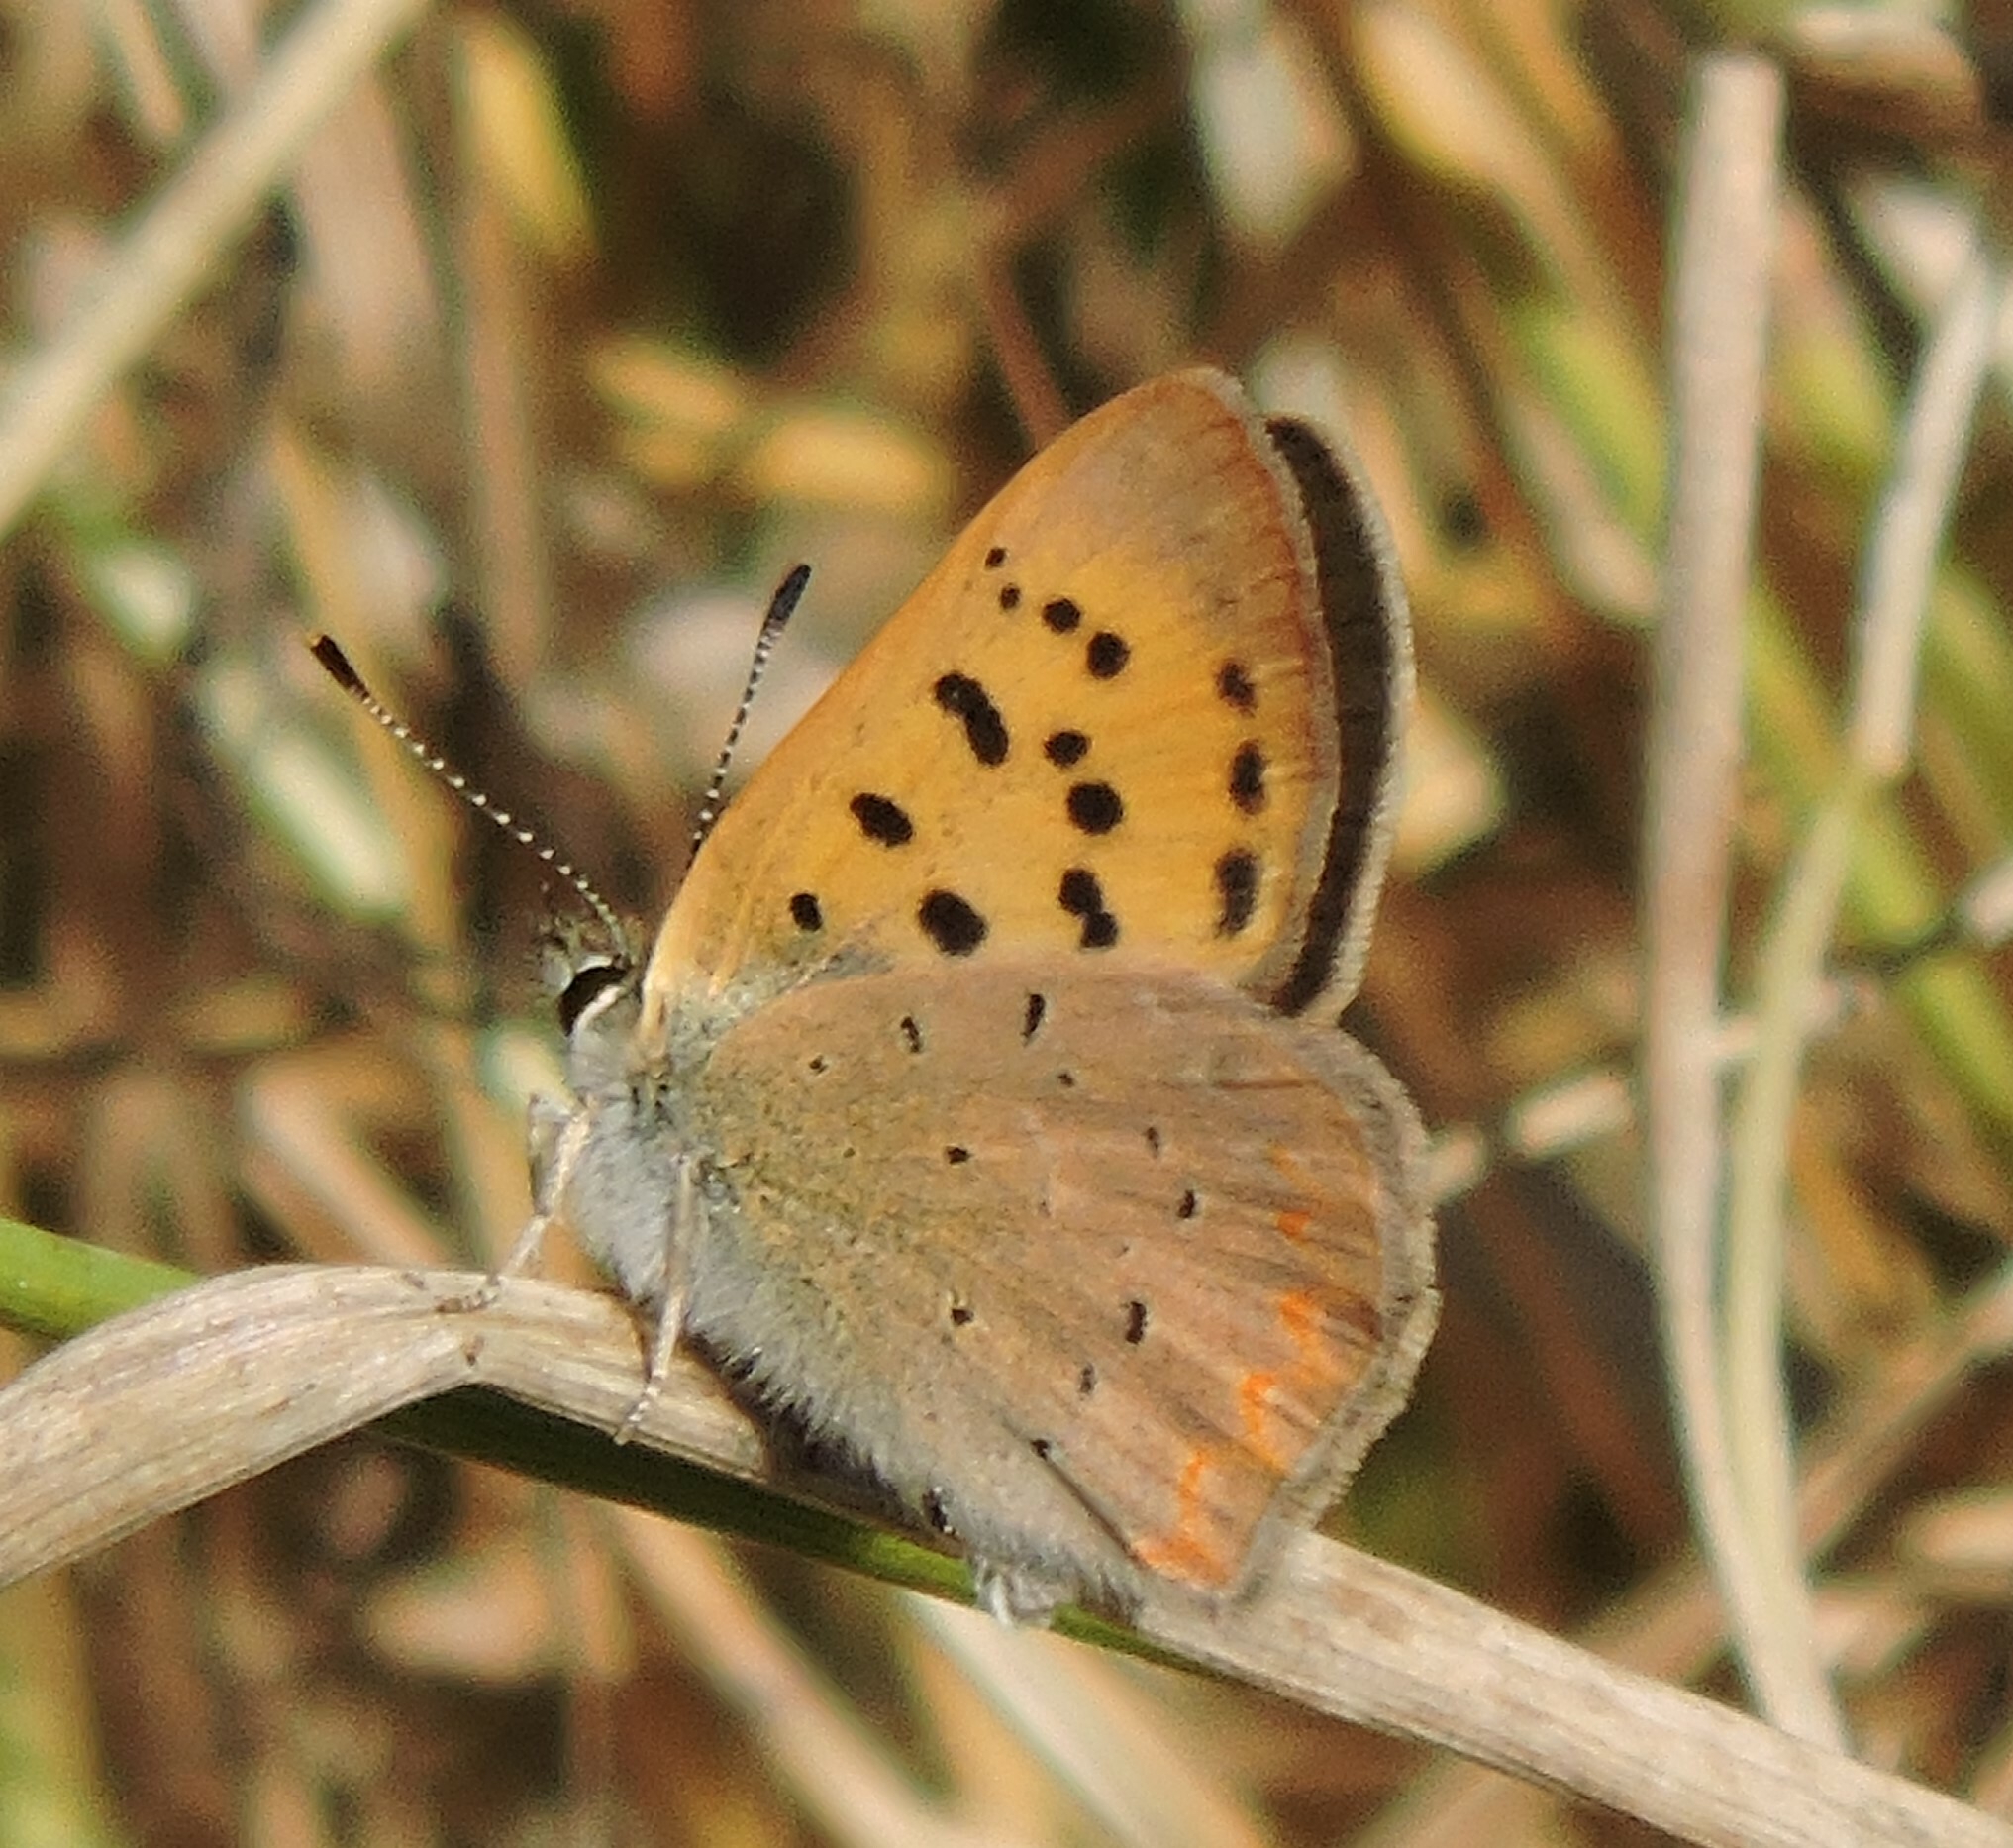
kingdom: Animalia
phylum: Arthropoda
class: Insecta
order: Lepidoptera
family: Lycaenidae
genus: Tharsalea
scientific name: Tharsalea helloides
